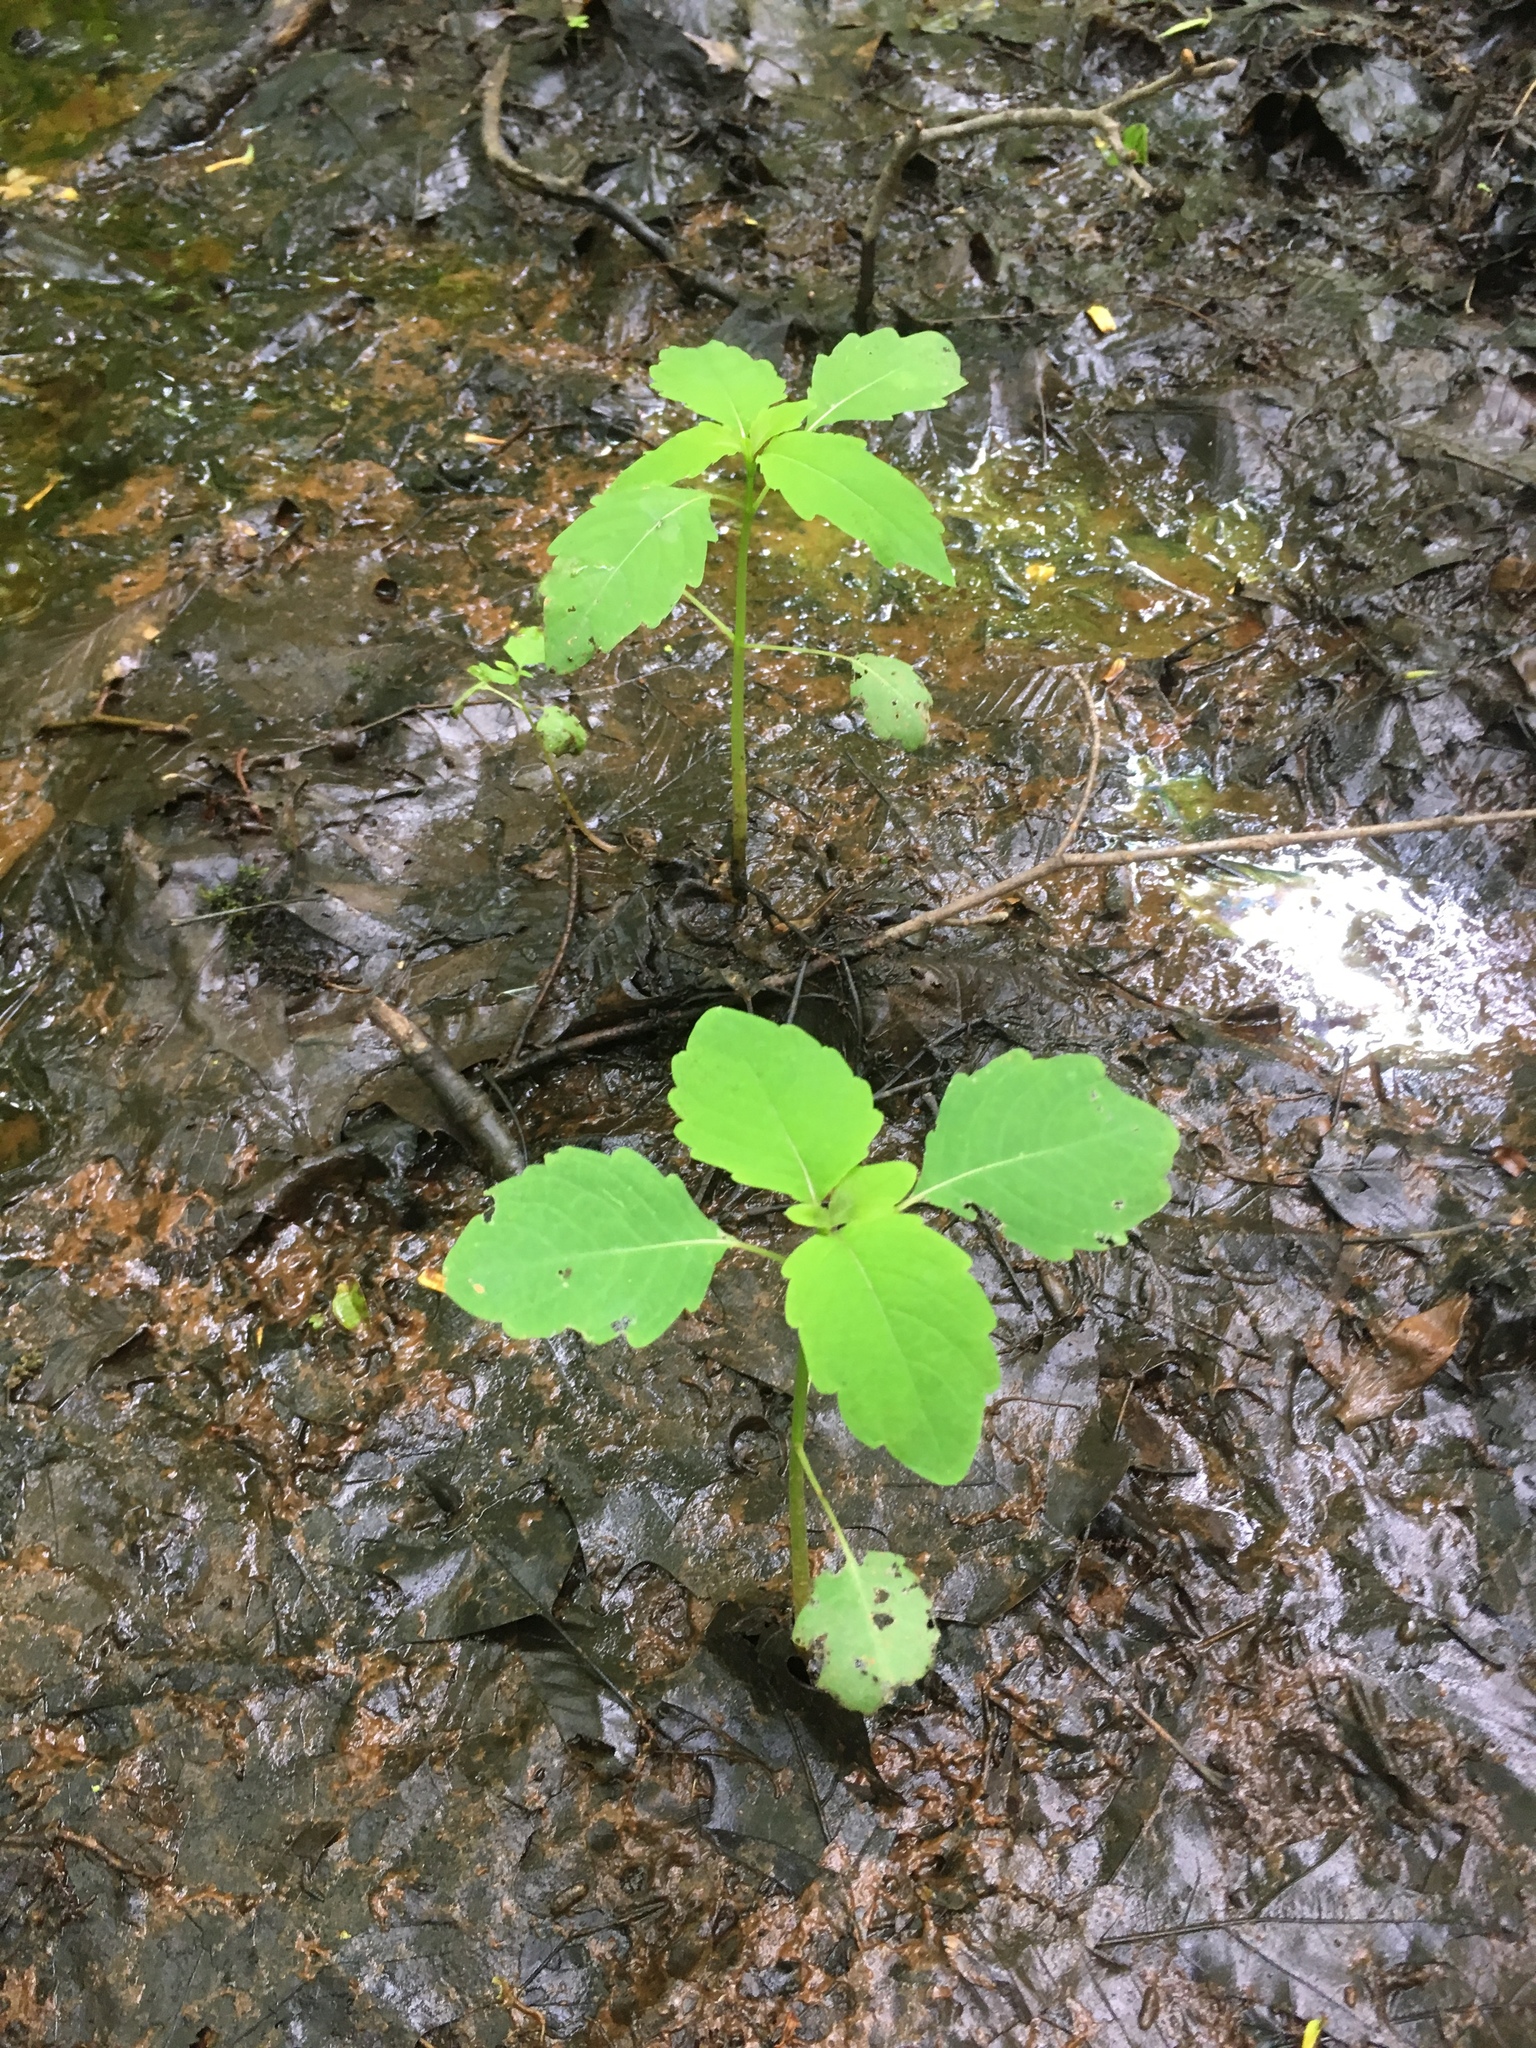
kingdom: Plantae
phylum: Tracheophyta
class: Magnoliopsida
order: Ericales
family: Balsaminaceae
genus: Impatiens
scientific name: Impatiens
